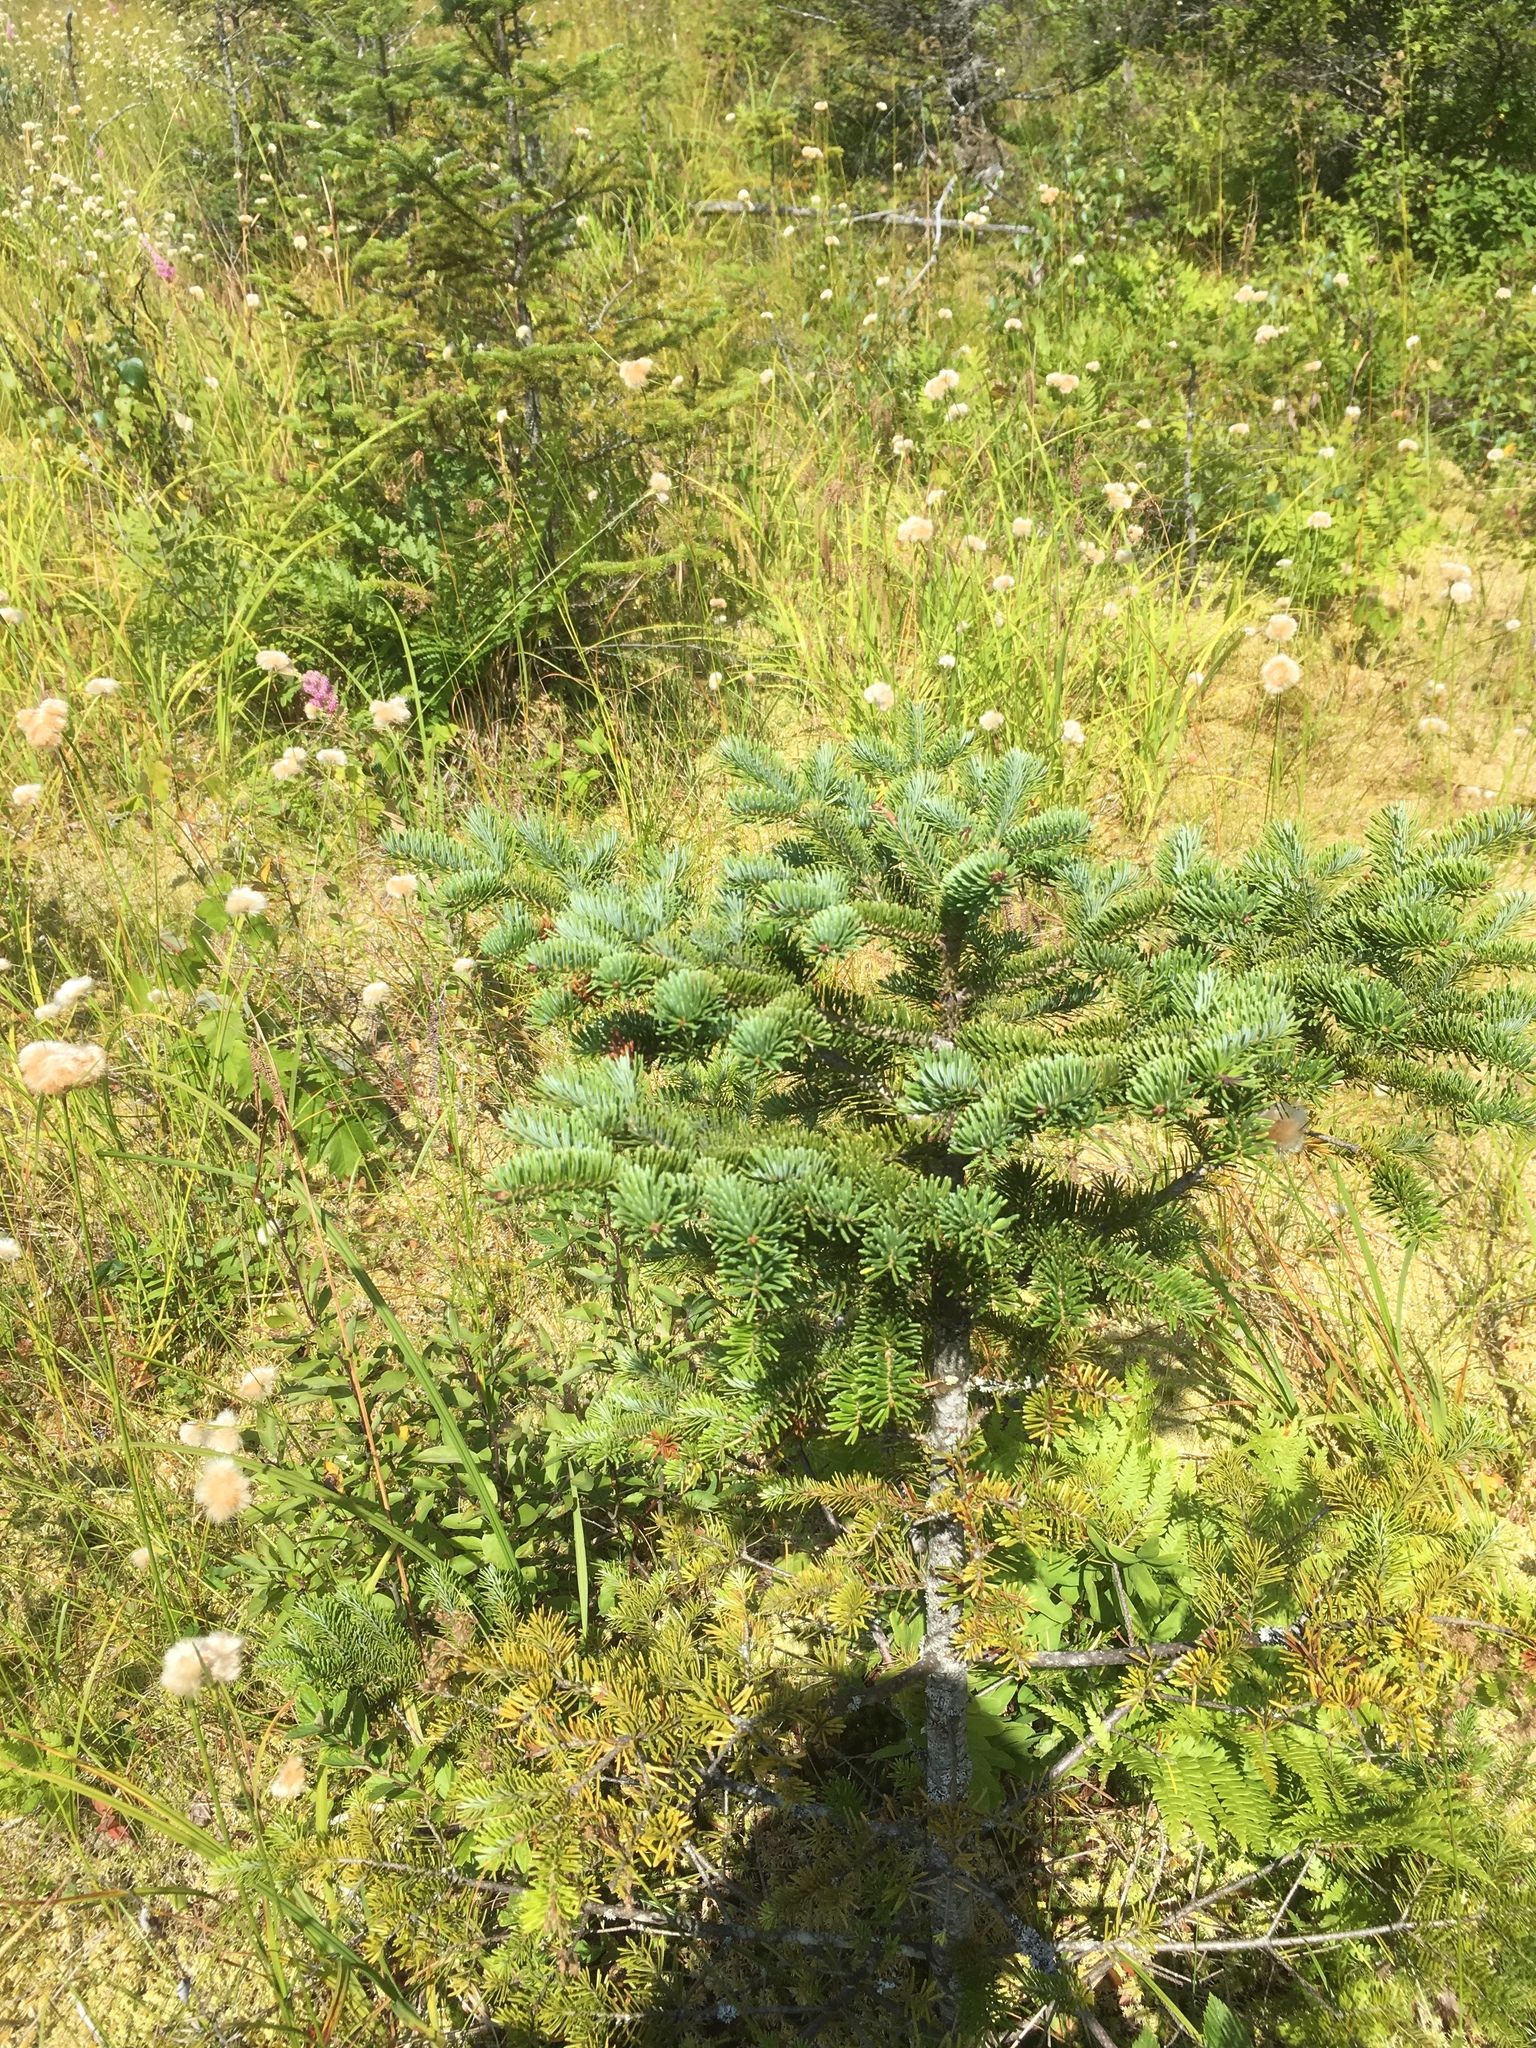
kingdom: Plantae
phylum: Tracheophyta
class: Pinopsida
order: Pinales
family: Pinaceae
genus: Abies
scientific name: Abies balsamea
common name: Balsam fir
